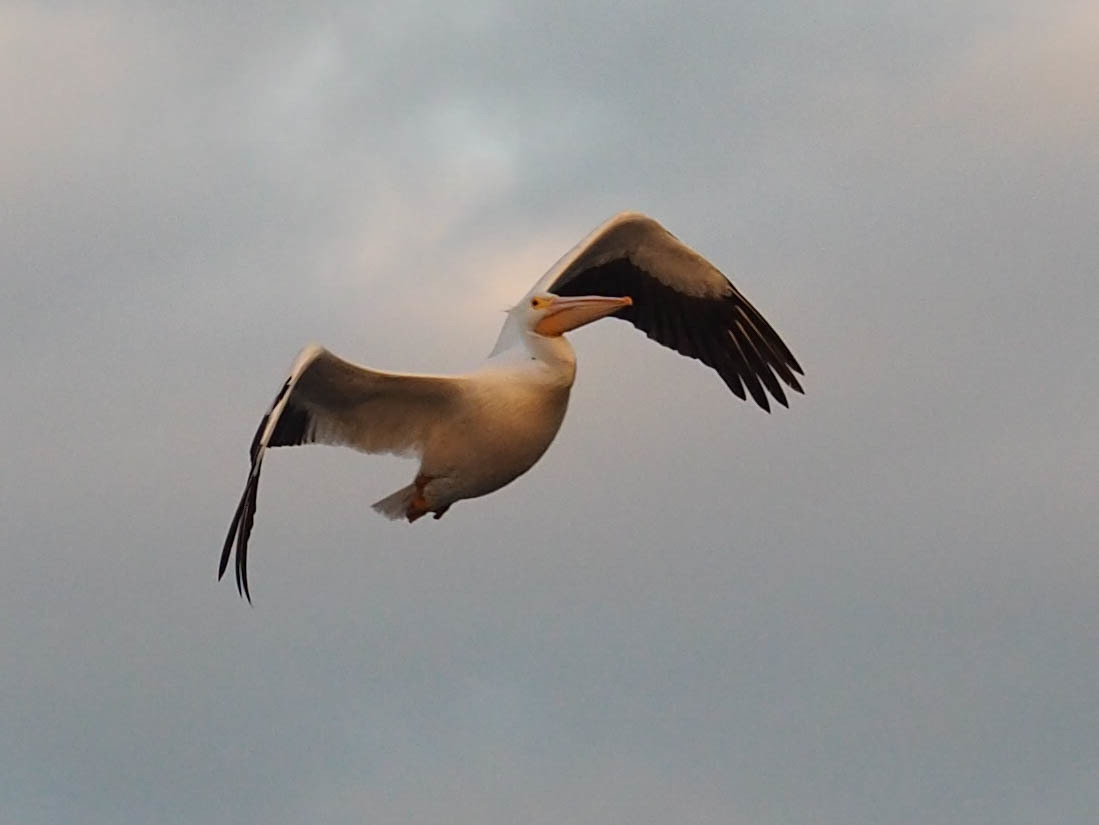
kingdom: Animalia
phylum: Chordata
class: Aves
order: Pelecaniformes
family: Pelecanidae
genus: Pelecanus
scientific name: Pelecanus erythrorhynchos
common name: American white pelican
